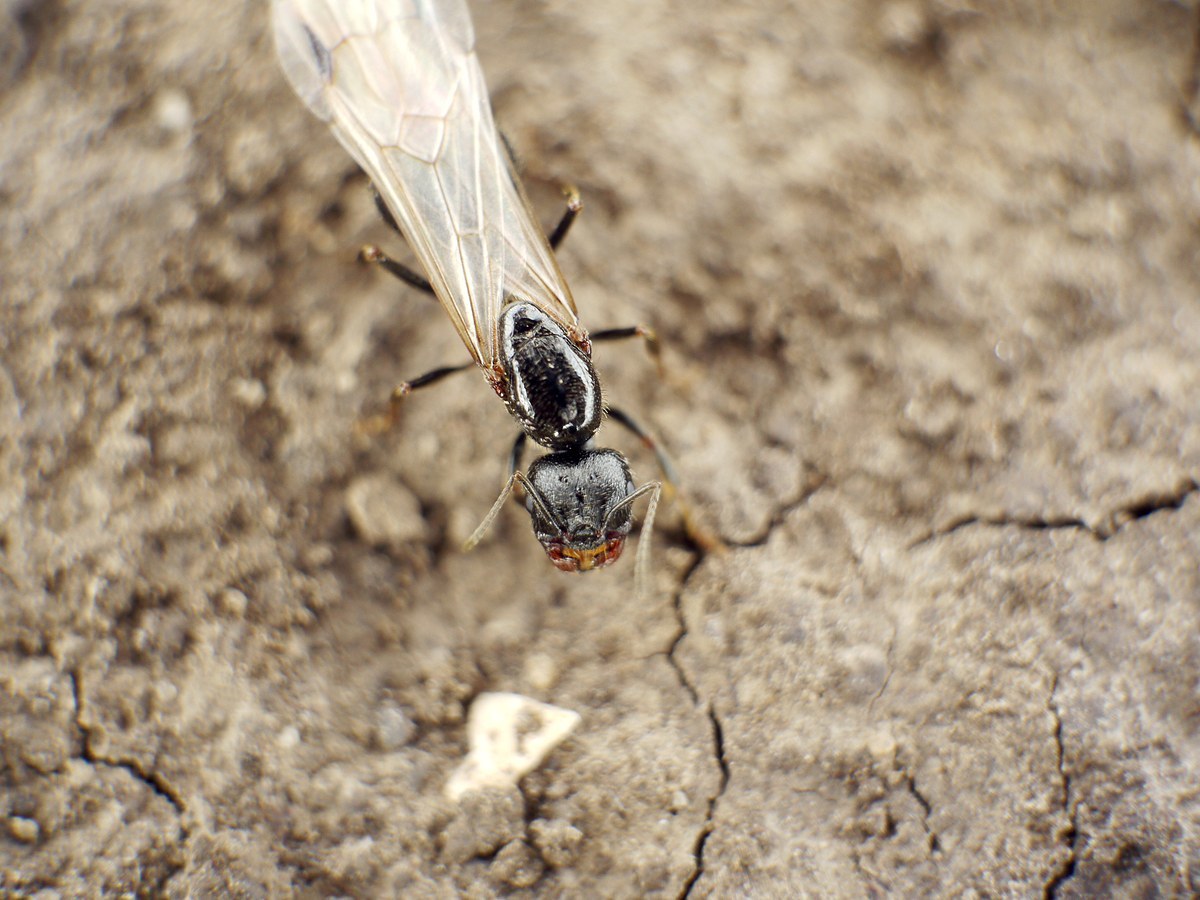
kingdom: Animalia
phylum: Arthropoda
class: Insecta
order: Hymenoptera
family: Formicidae
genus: Messor
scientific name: Messor structor
